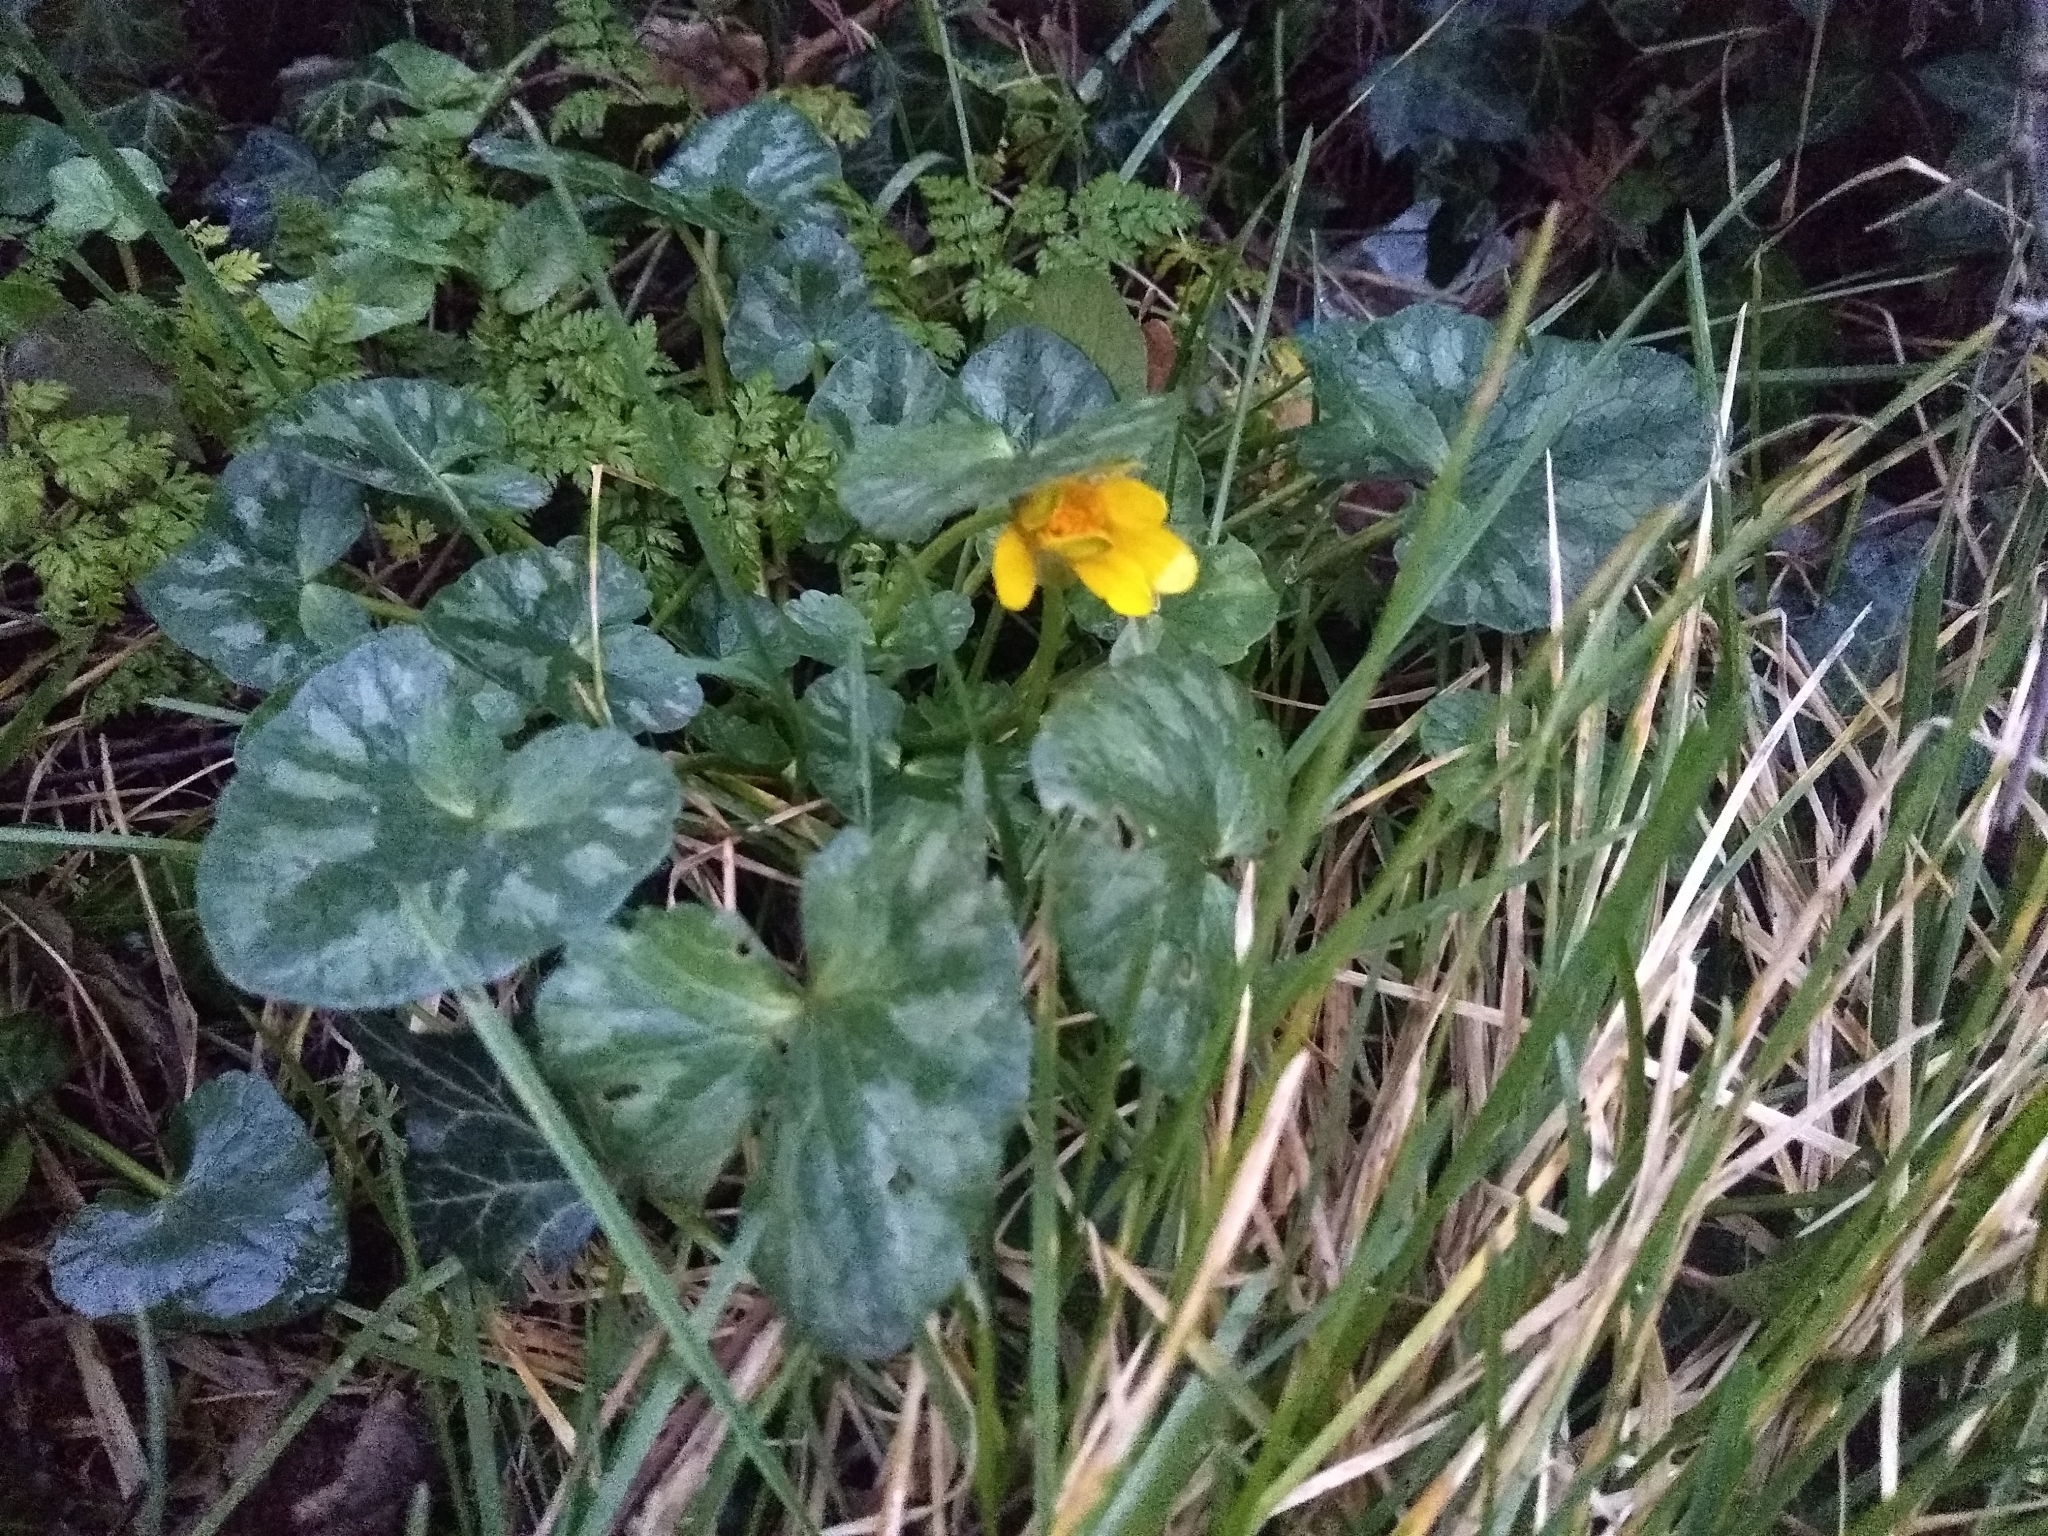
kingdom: Plantae
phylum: Tracheophyta
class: Magnoliopsida
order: Ranunculales
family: Ranunculaceae
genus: Ficaria
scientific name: Ficaria verna
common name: Lesser celandine
